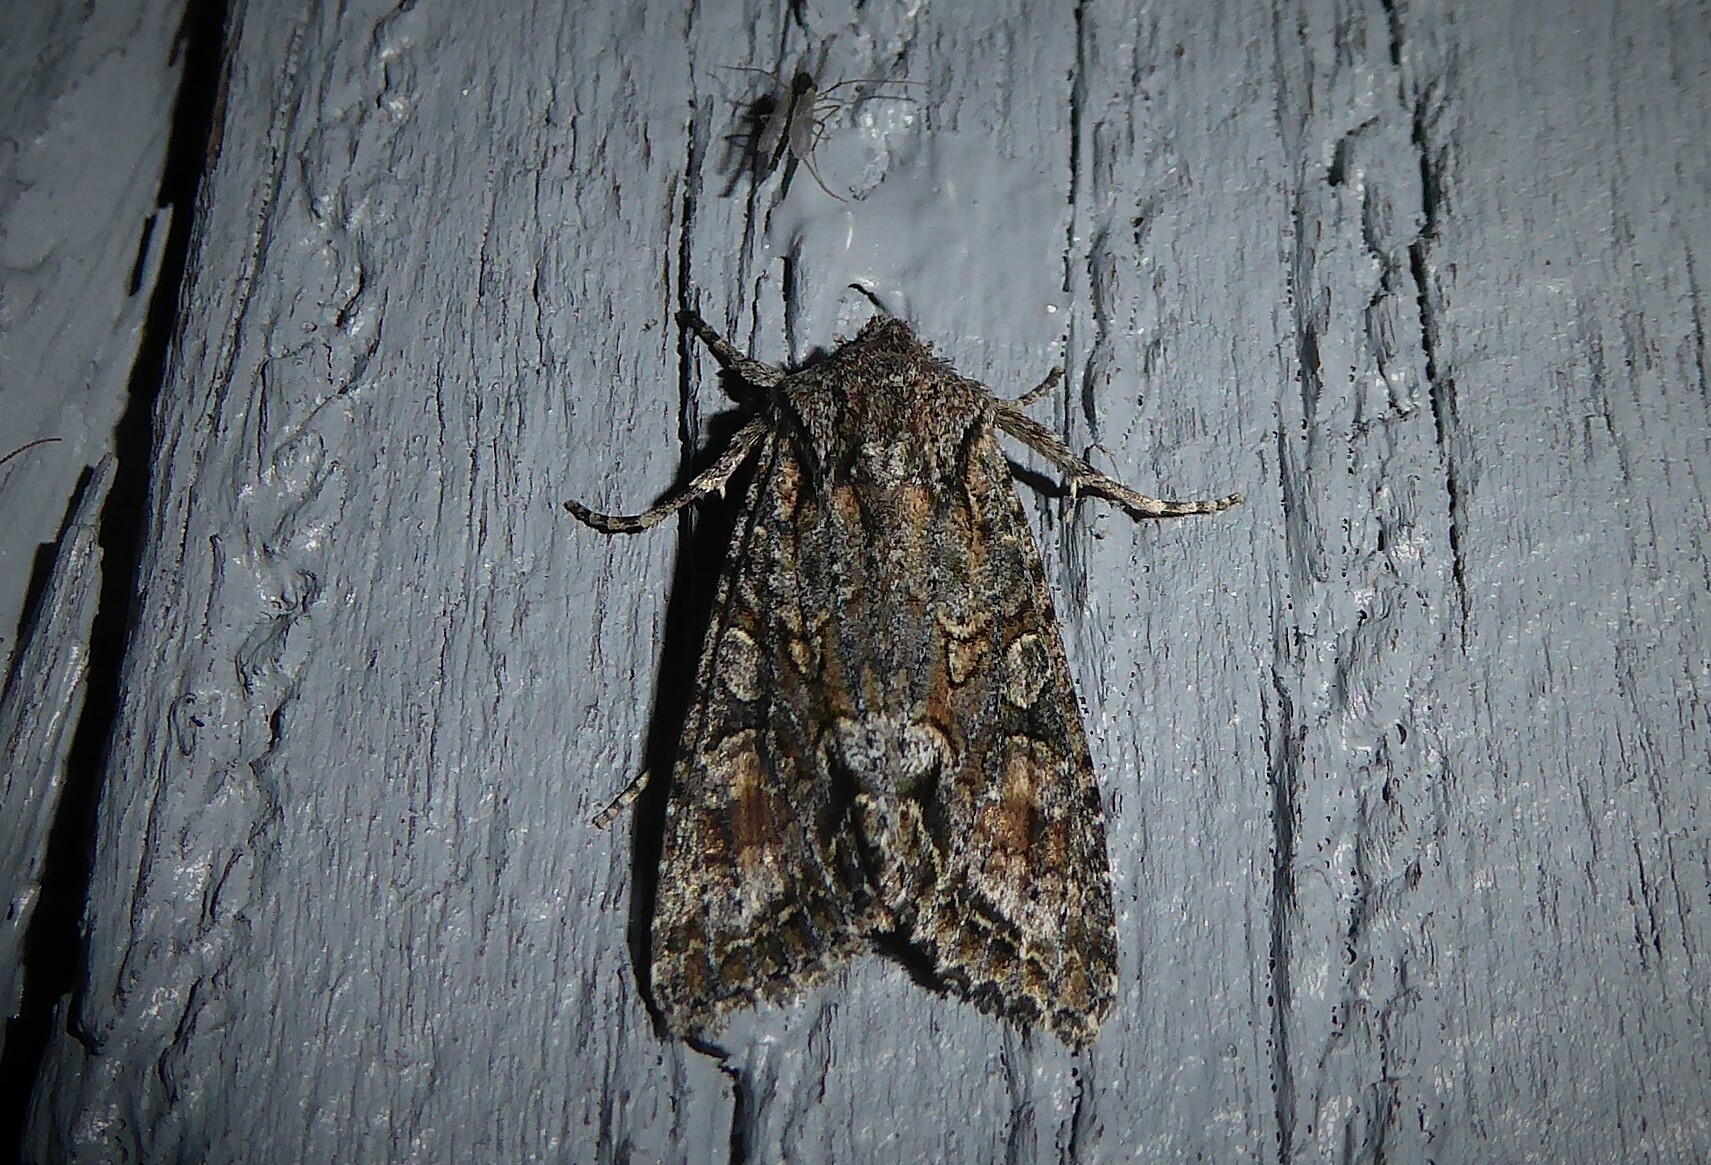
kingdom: Animalia
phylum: Arthropoda
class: Insecta
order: Lepidoptera
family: Noctuidae
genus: Ichneutica
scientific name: Ichneutica mutans
